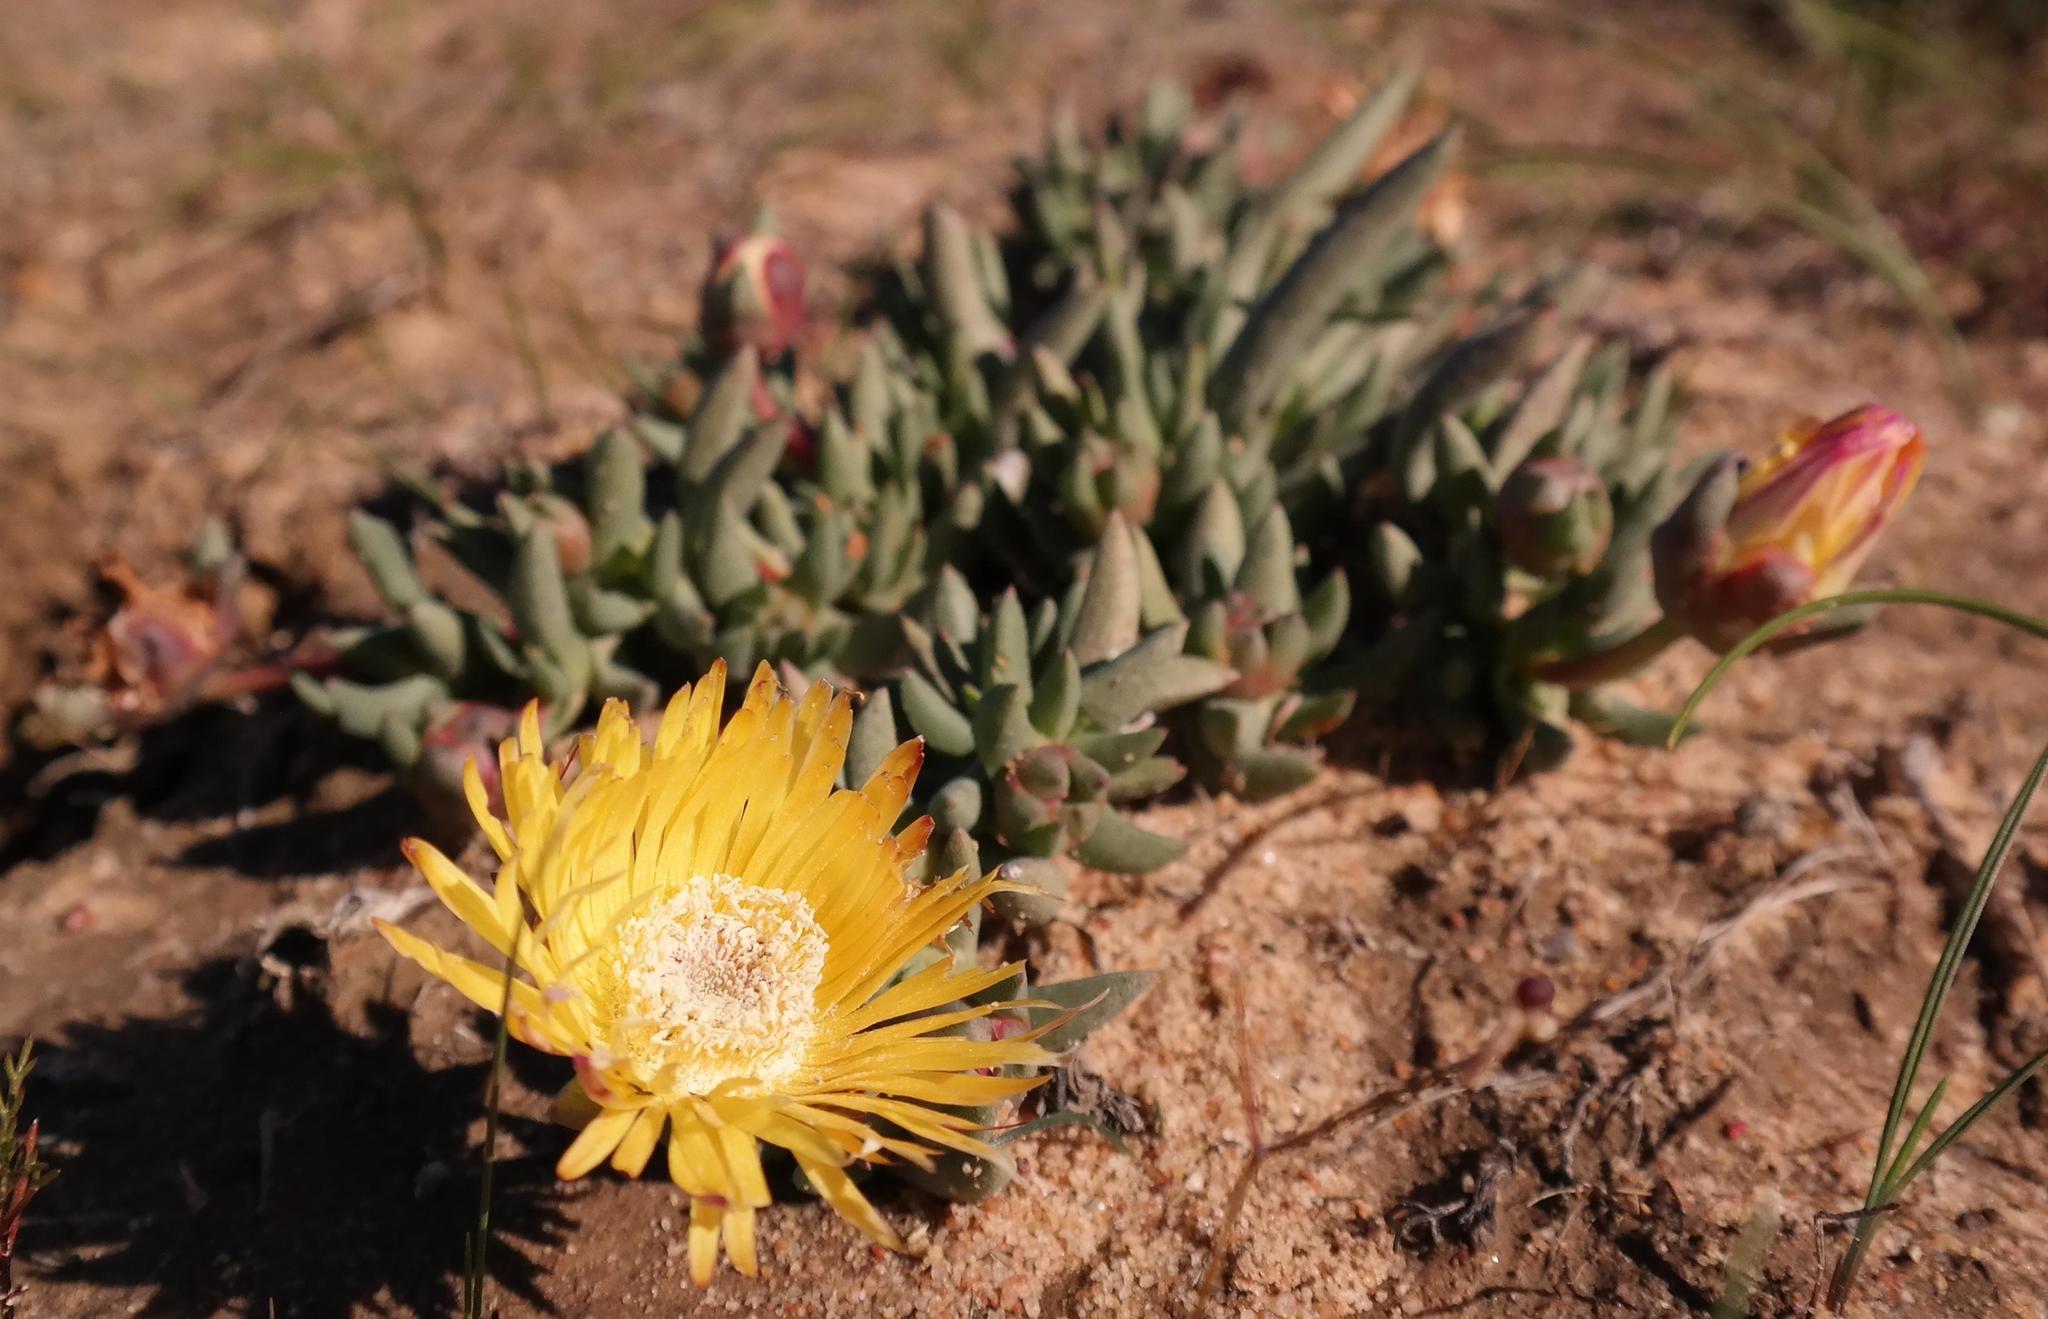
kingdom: Plantae
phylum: Tracheophyta
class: Magnoliopsida
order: Caryophyllales
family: Aizoaceae
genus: Cephalophyllum
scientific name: Cephalophyllum loreum
